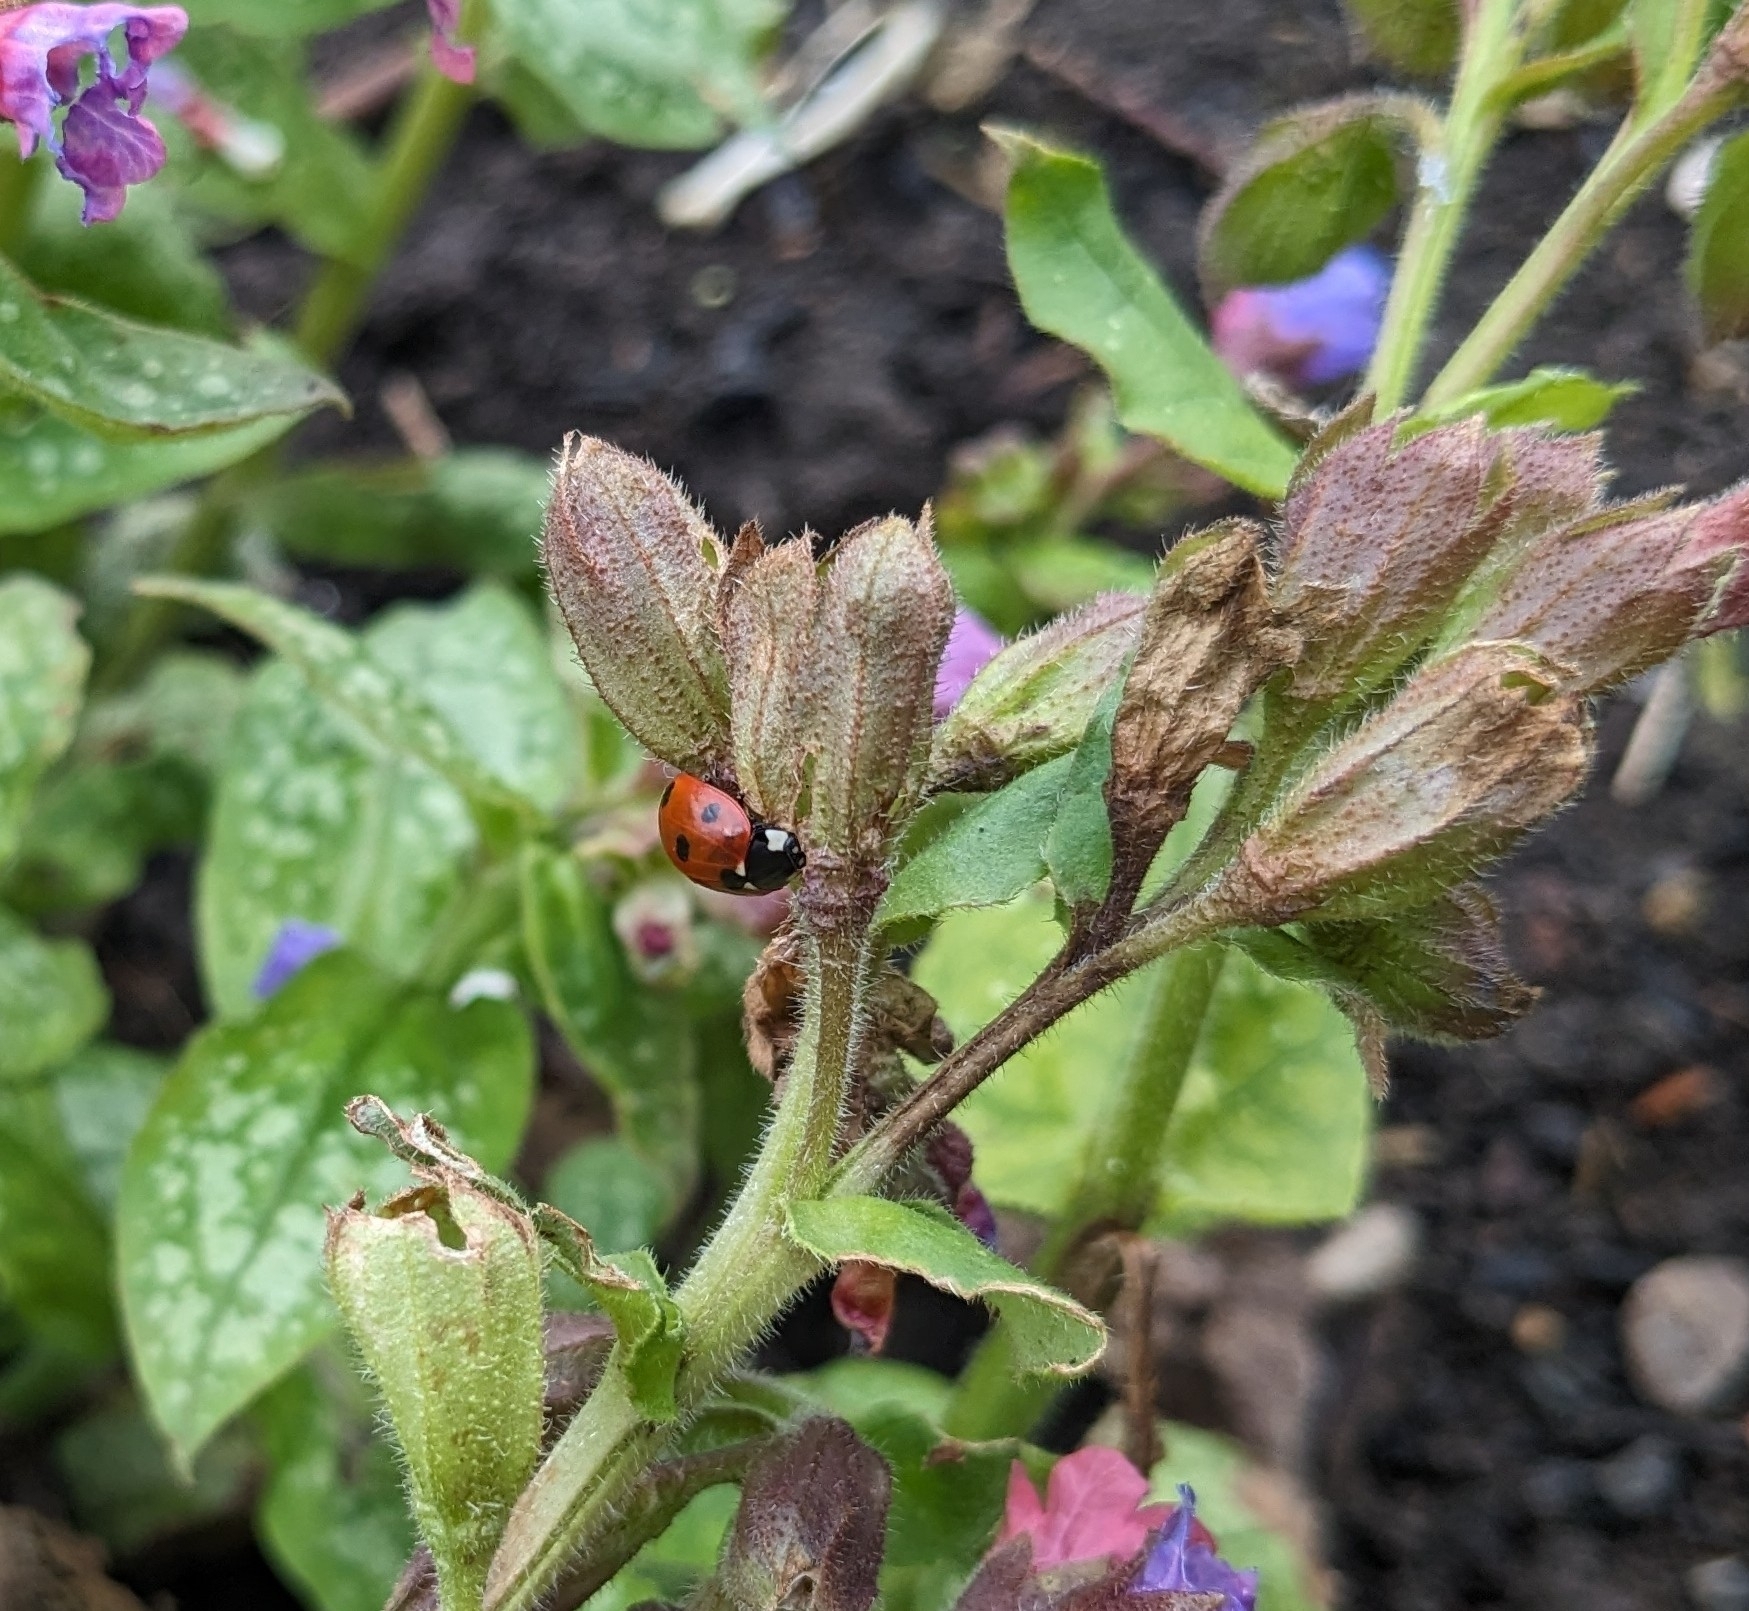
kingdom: Animalia
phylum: Arthropoda
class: Insecta
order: Coleoptera
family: Coccinellidae
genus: Coccinella
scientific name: Coccinella septempunctata
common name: Sevenspotted lady beetle
